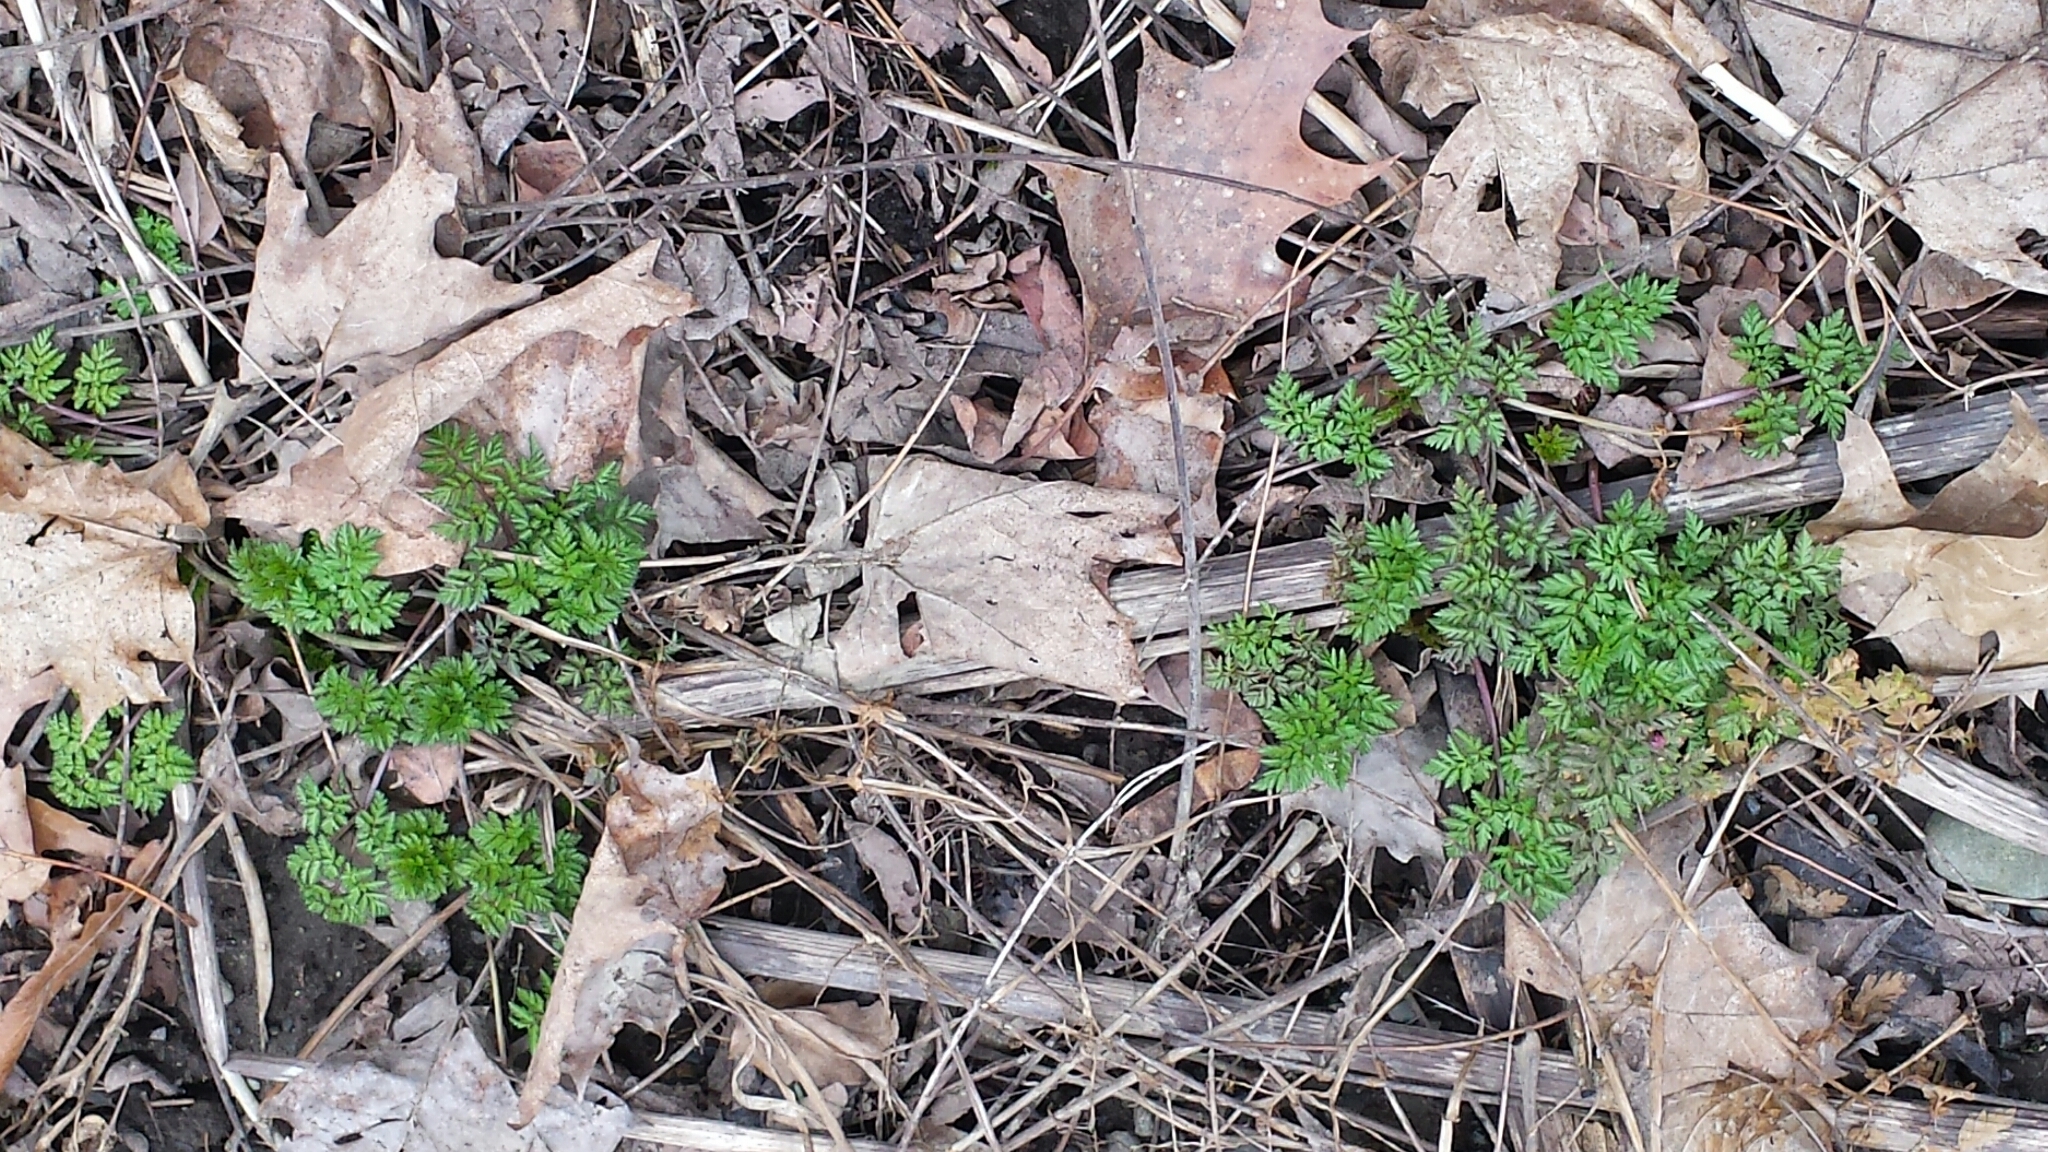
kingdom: Plantae
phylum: Tracheophyta
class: Magnoliopsida
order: Apiales
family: Apiaceae
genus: Anthriscus
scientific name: Anthriscus sylvestris
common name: Cow parsley
